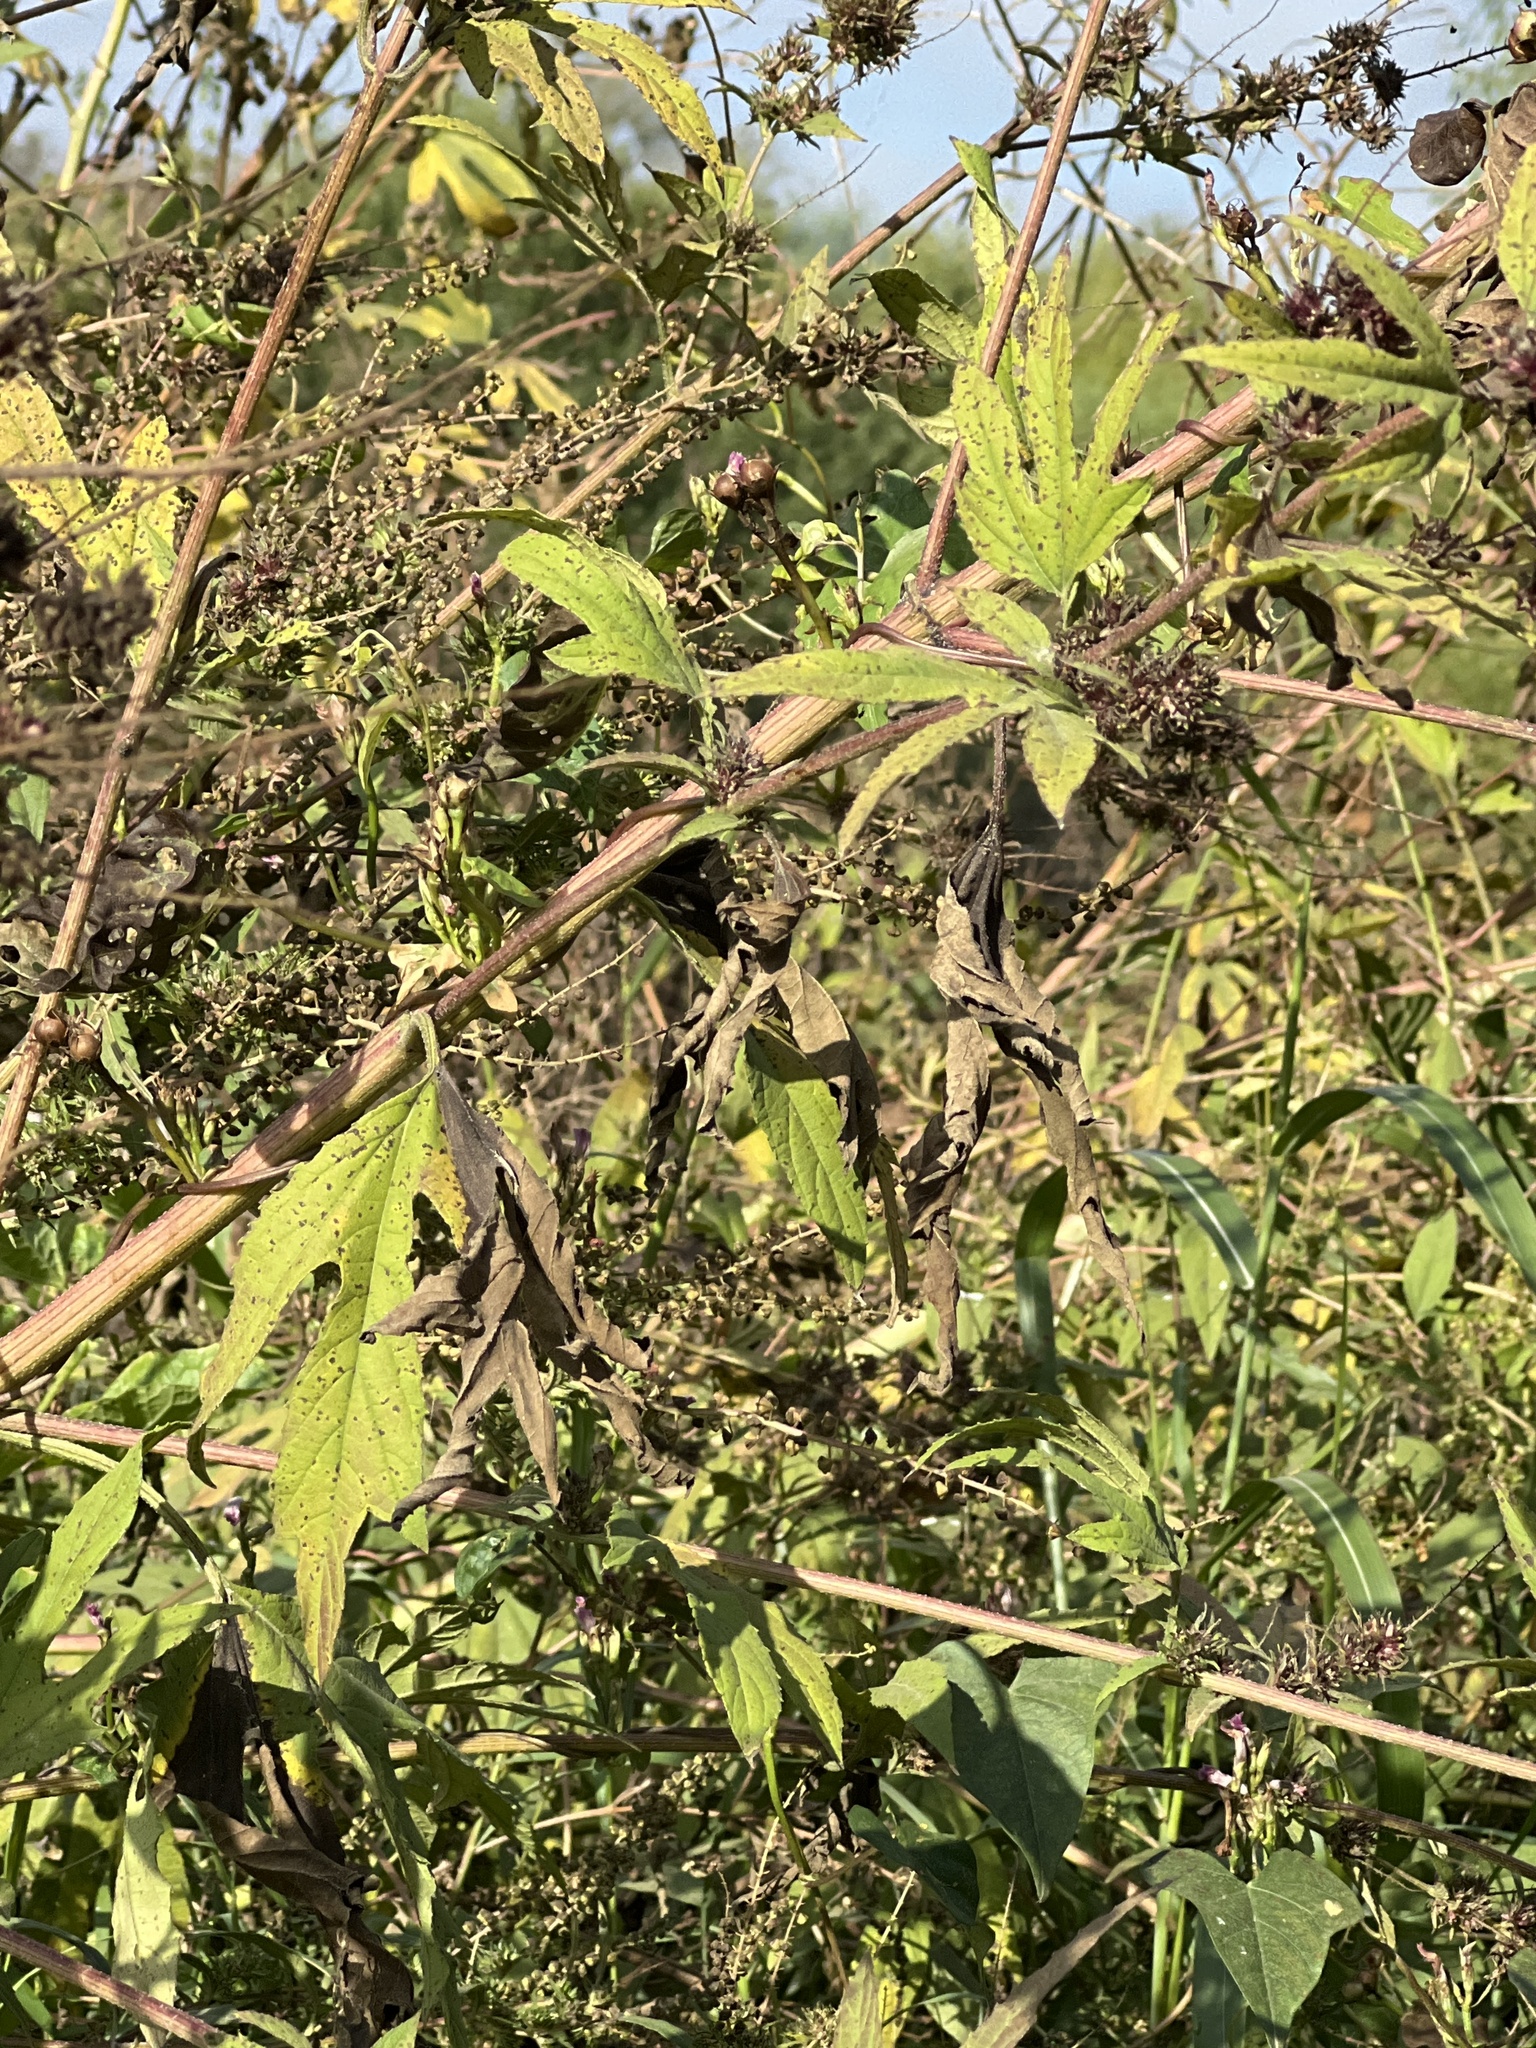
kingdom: Plantae
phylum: Tracheophyta
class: Magnoliopsida
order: Asterales
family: Asteraceae
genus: Ambrosia
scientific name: Ambrosia trifida
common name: Giant ragweed
